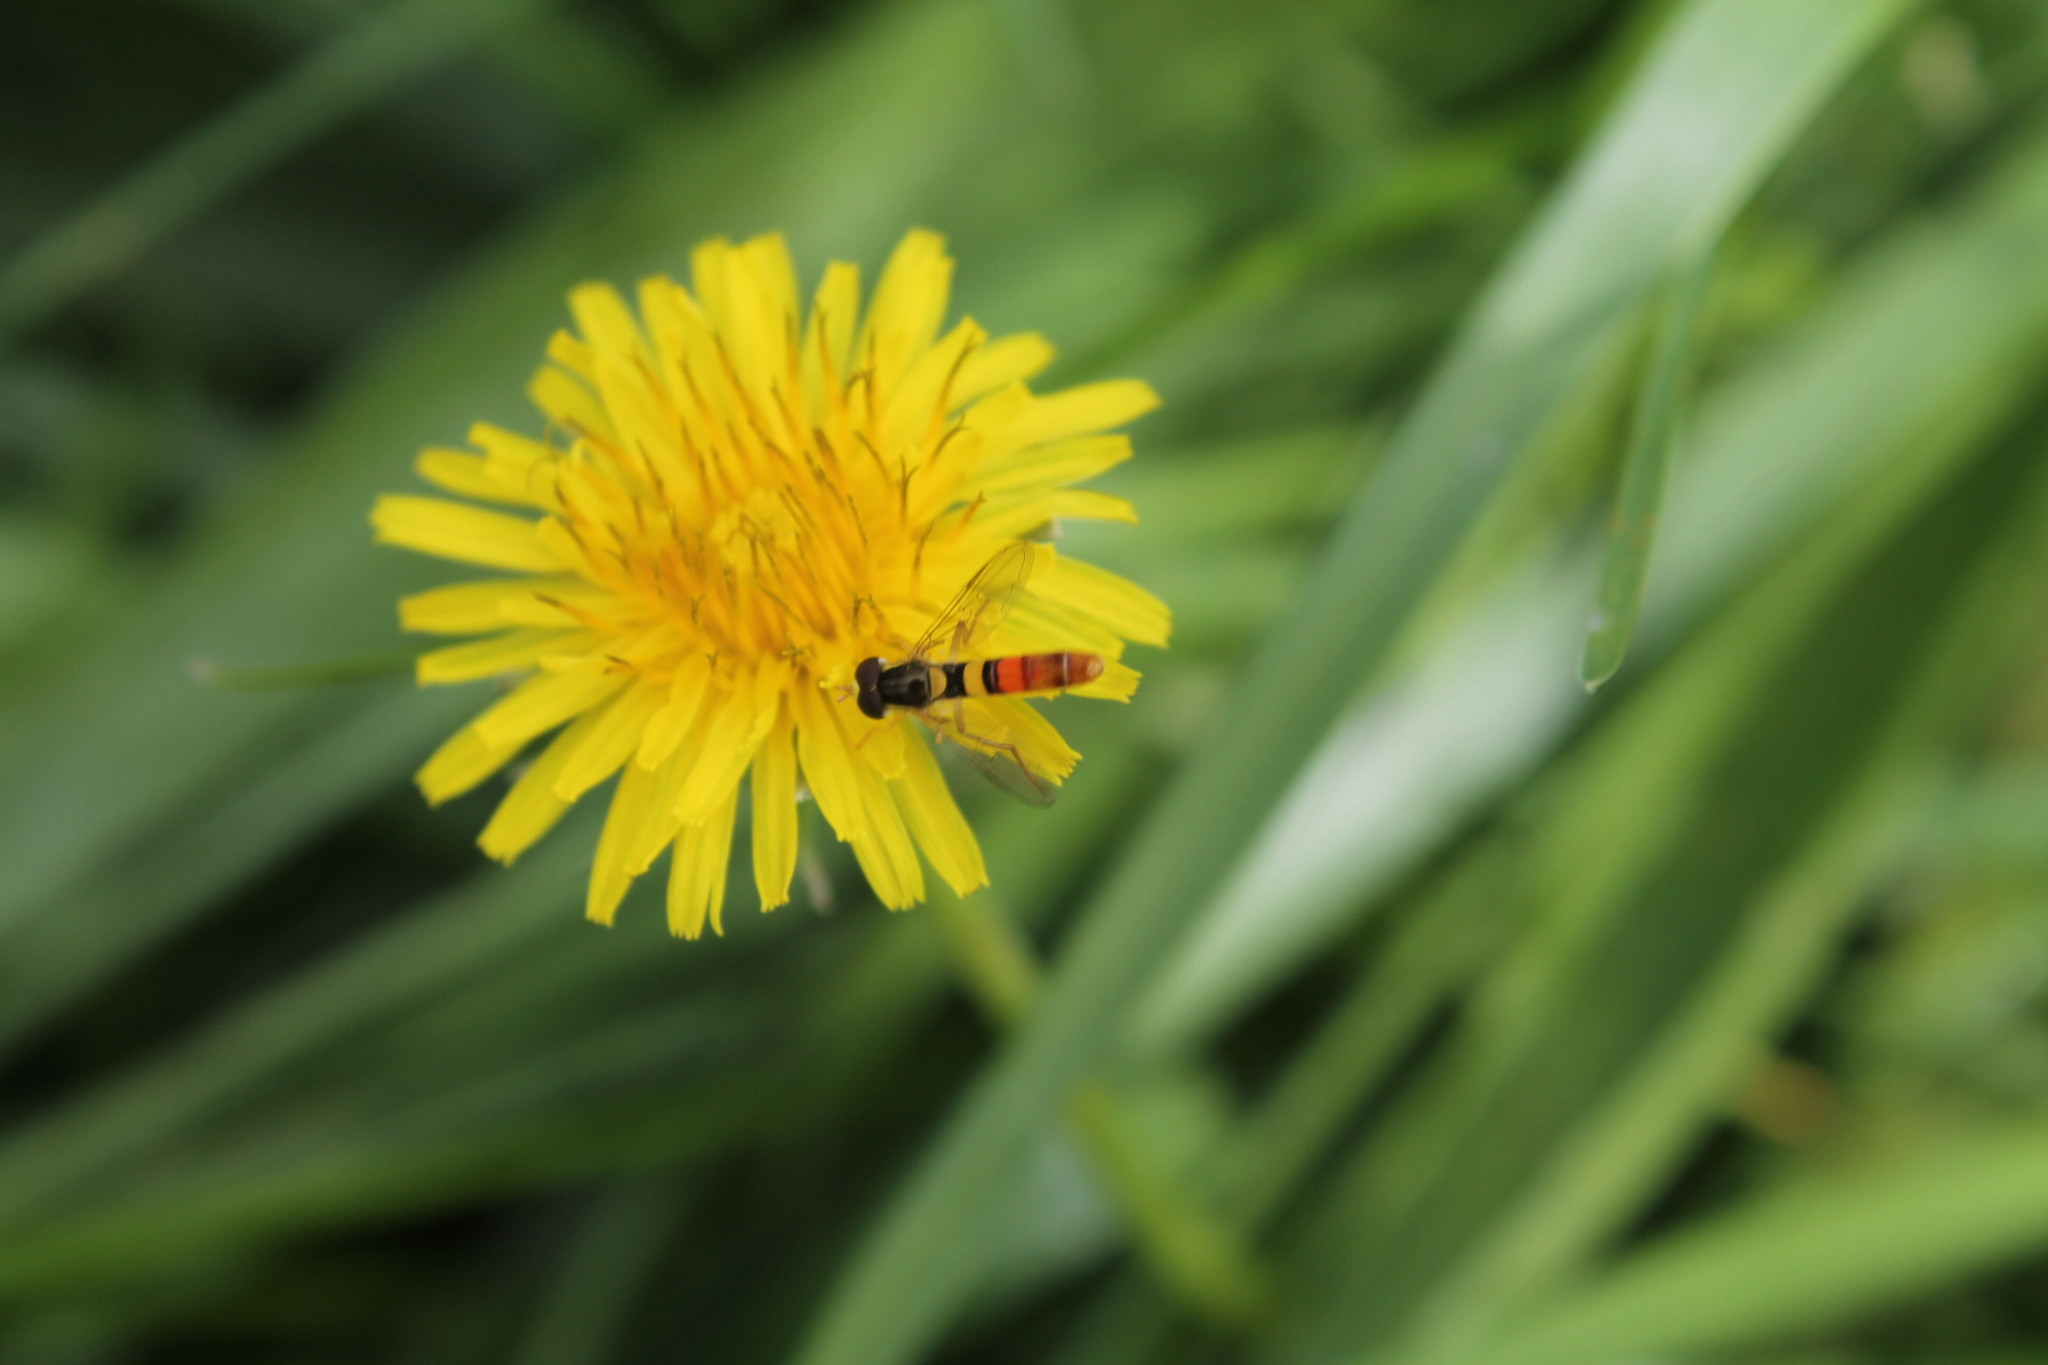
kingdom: Animalia
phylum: Arthropoda
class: Insecta
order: Diptera
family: Syrphidae
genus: Sphaerophoria
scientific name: Sphaerophoria contigua
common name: Tufted globetail
